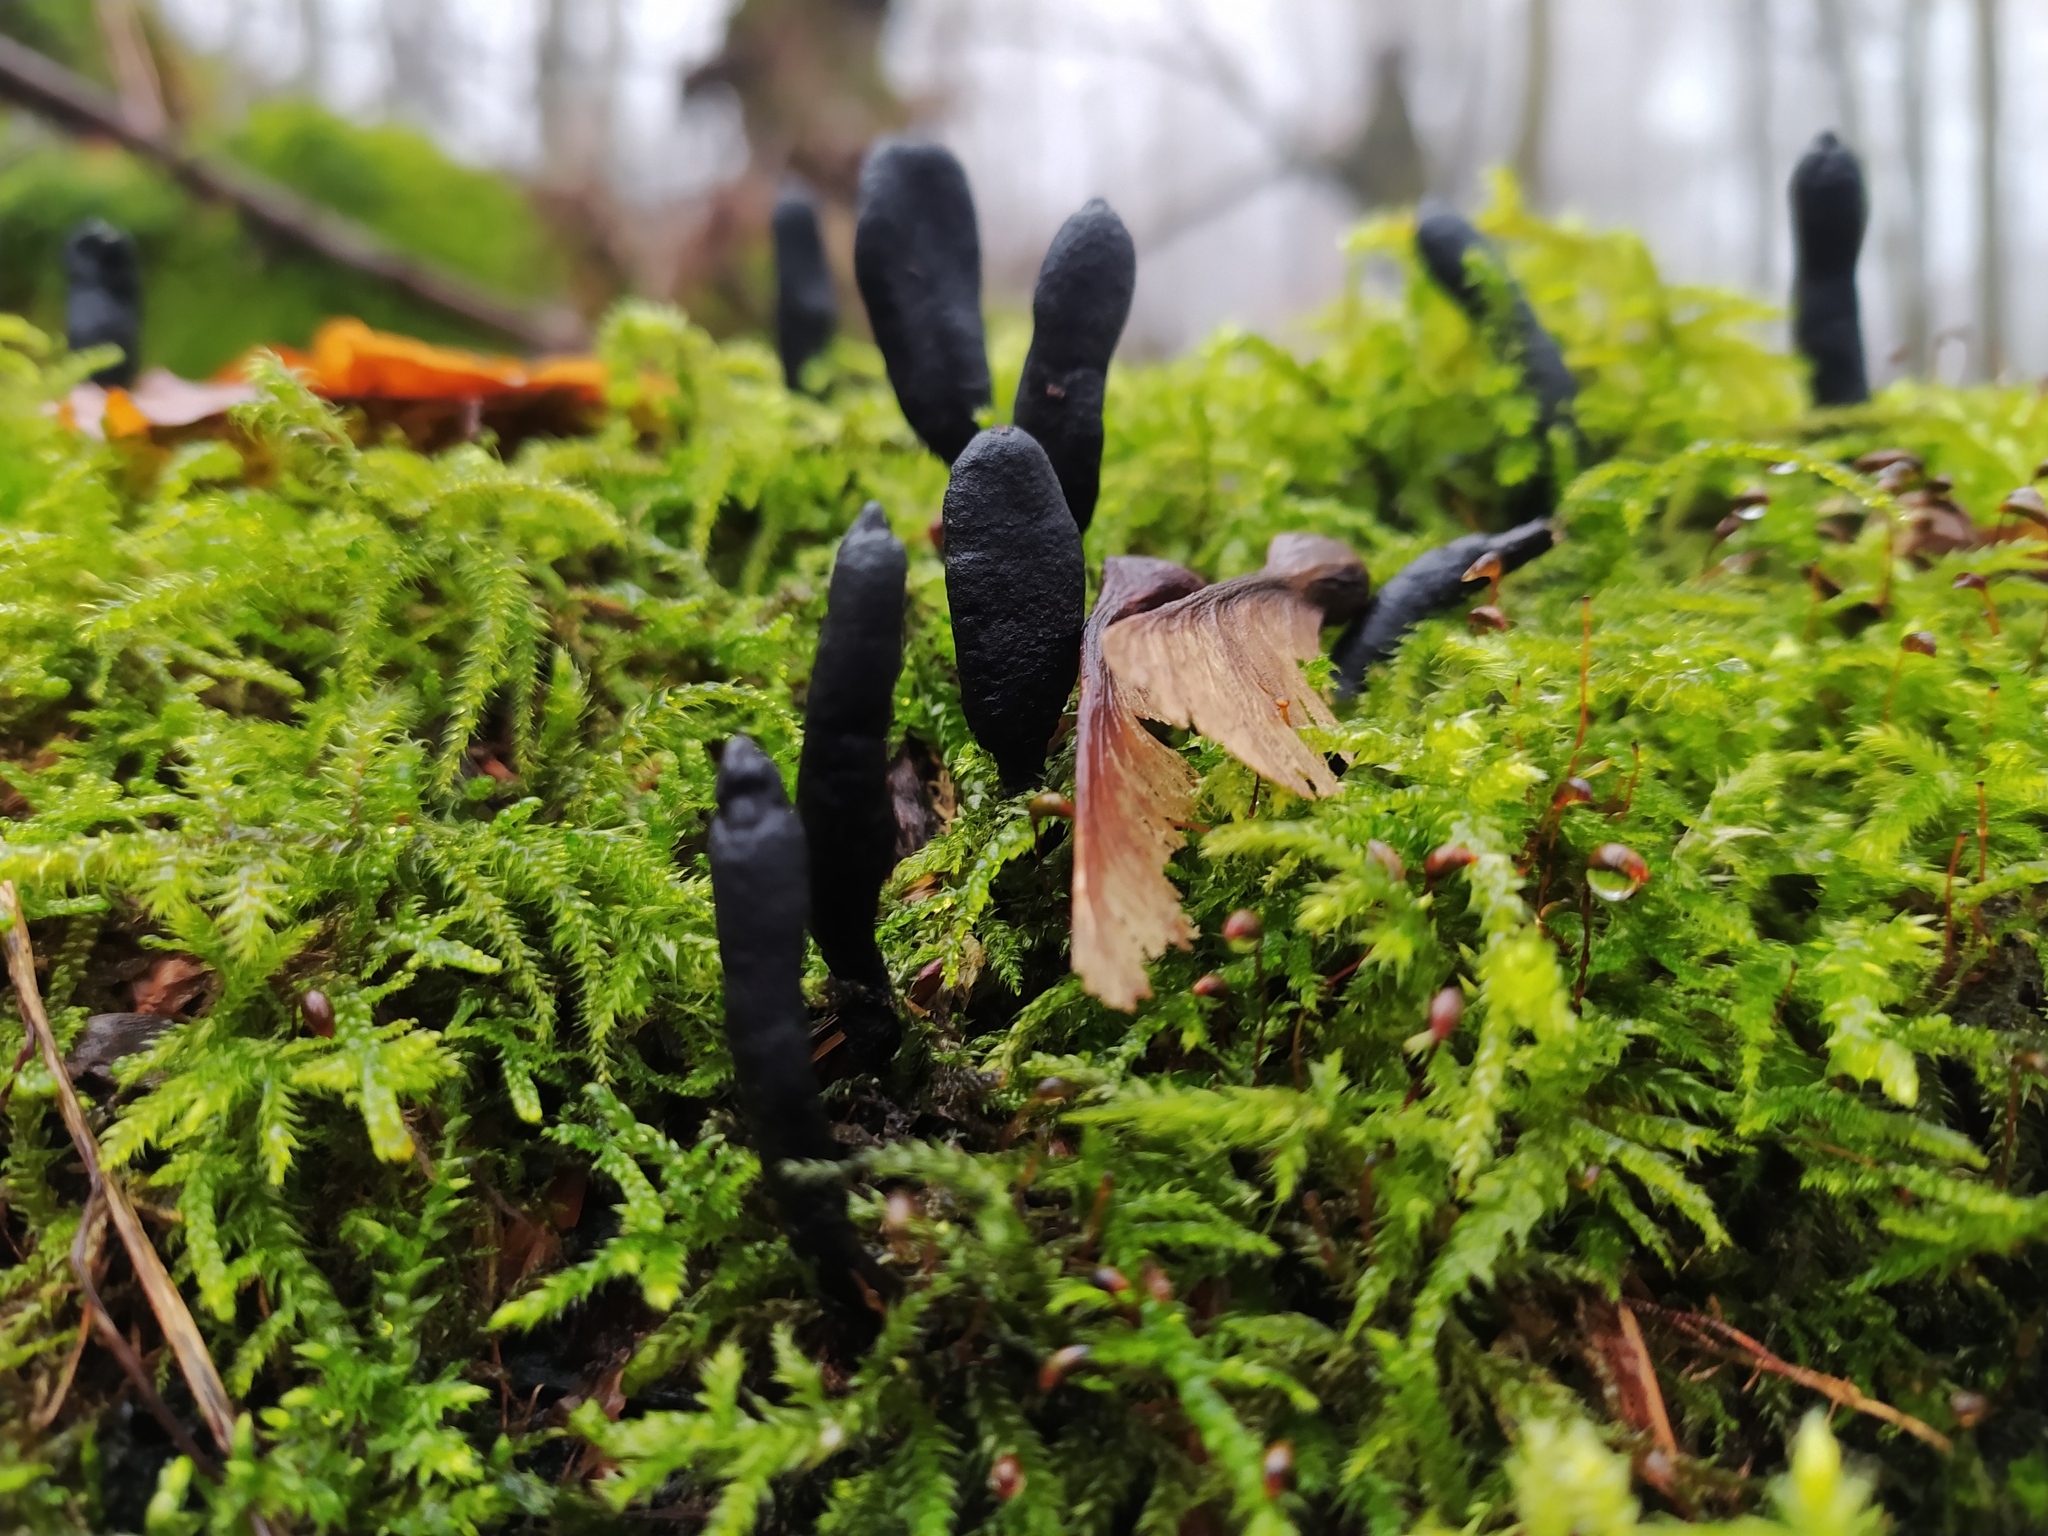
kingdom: Fungi
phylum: Ascomycota
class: Sordariomycetes
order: Xylariales
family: Xylariaceae
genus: Xylaria
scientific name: Xylaria longipes
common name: Dead moll's fingers
